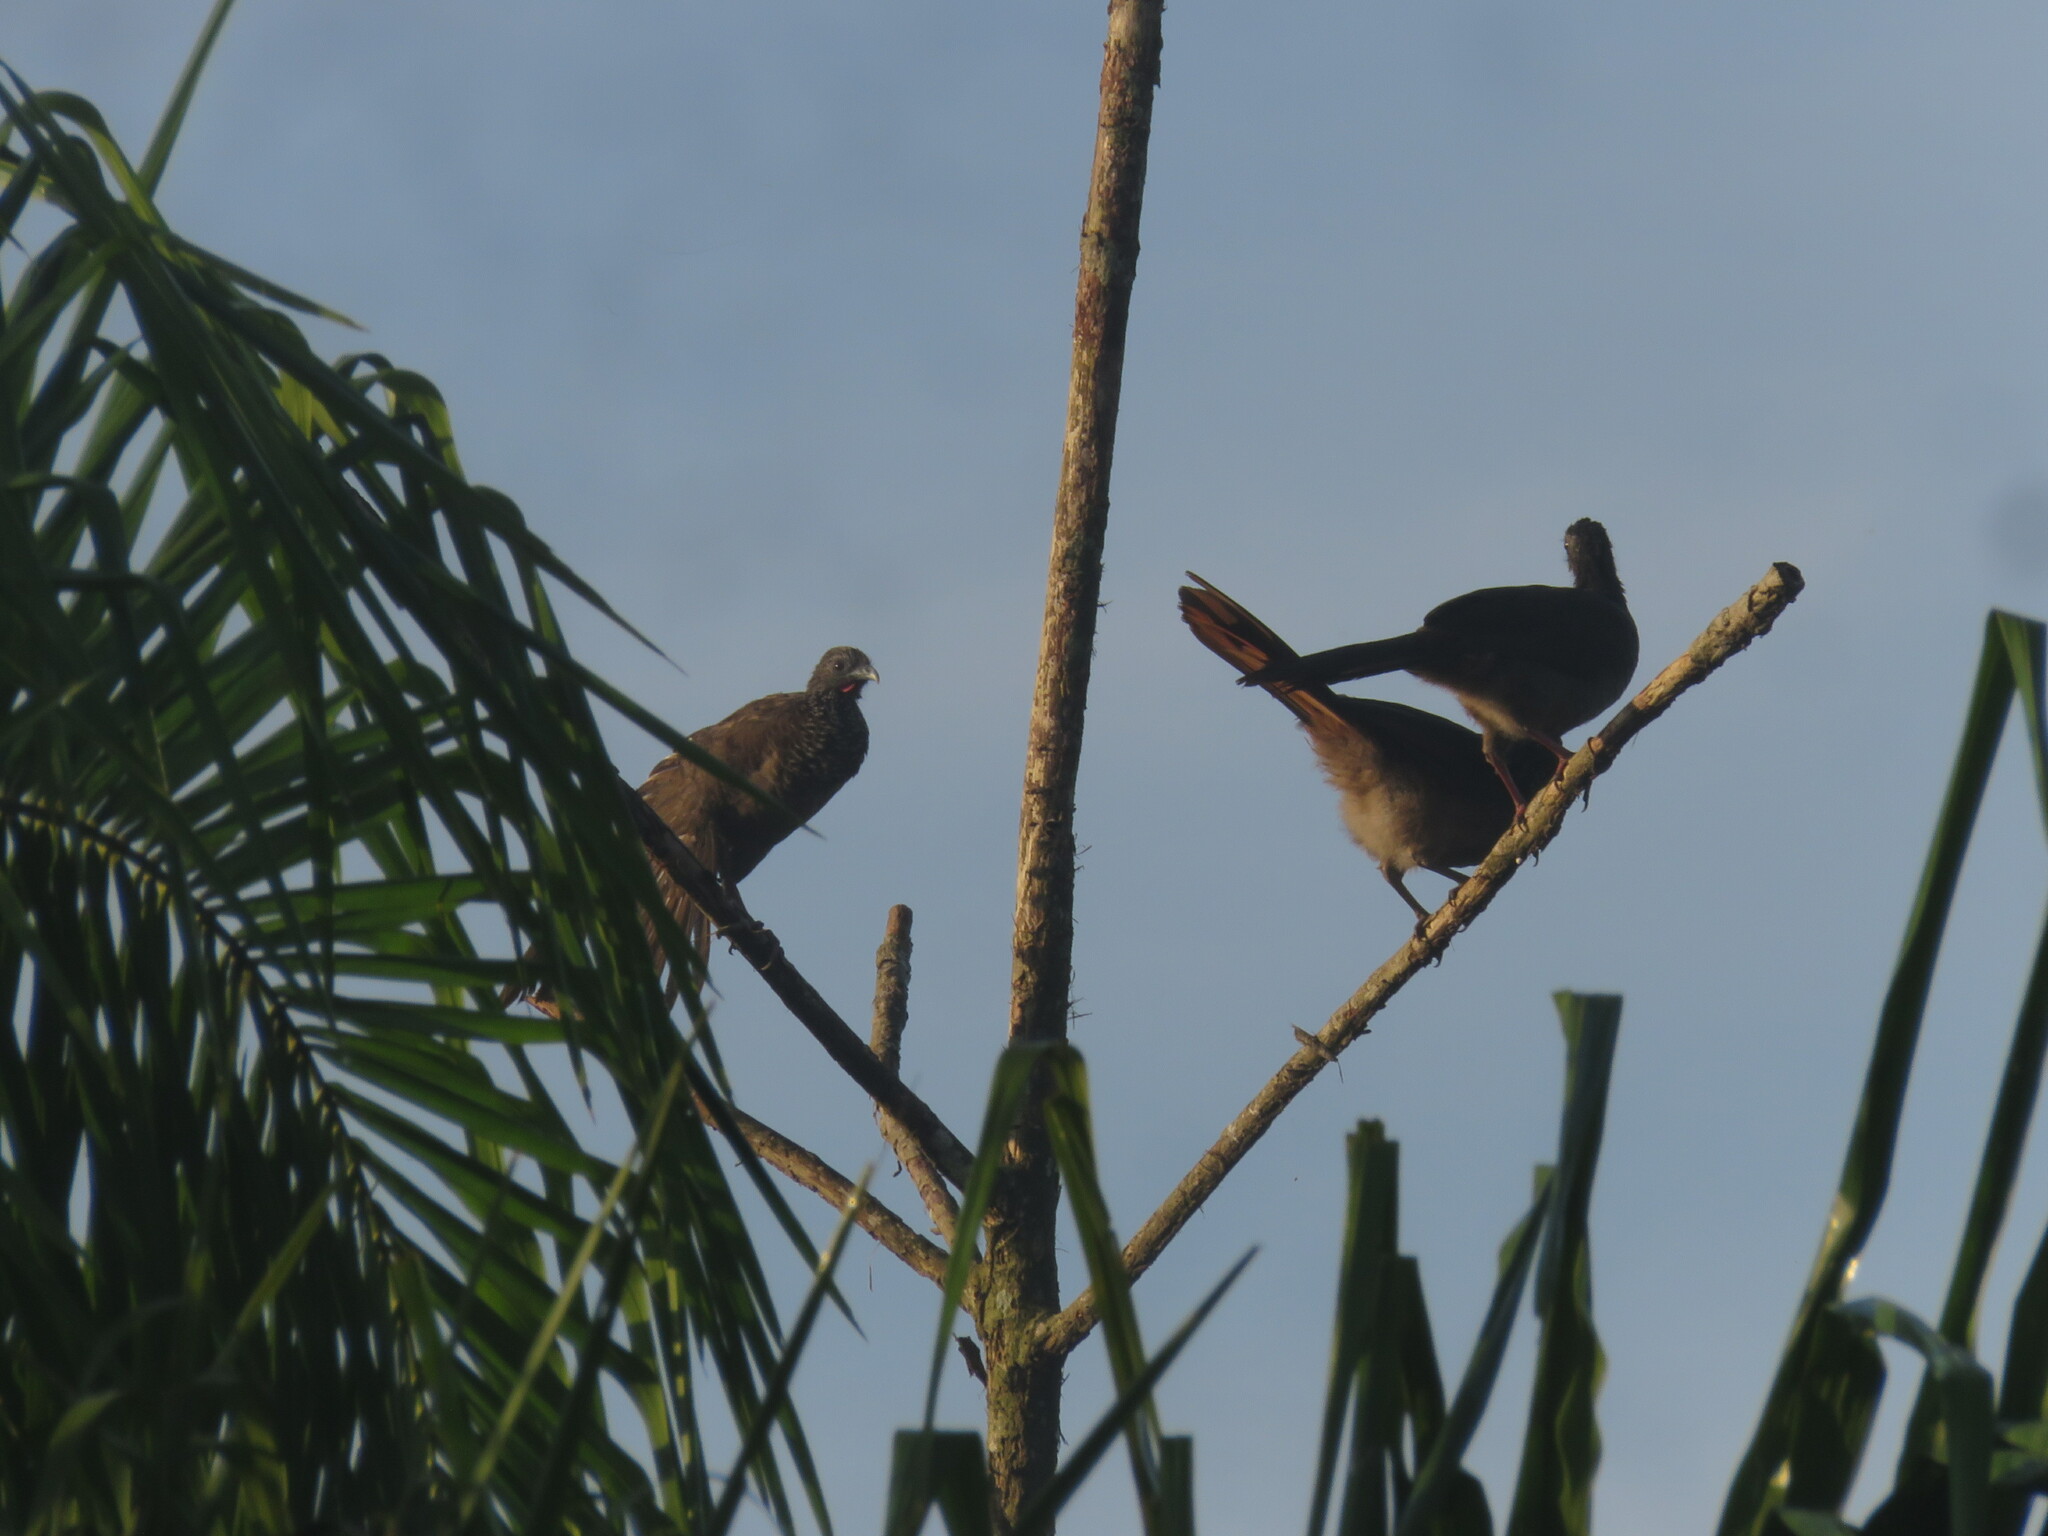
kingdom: Animalia
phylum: Chordata
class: Aves
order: Galliformes
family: Cracidae
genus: Ortalis
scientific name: Ortalis guttata
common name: Speckled chachalaca
